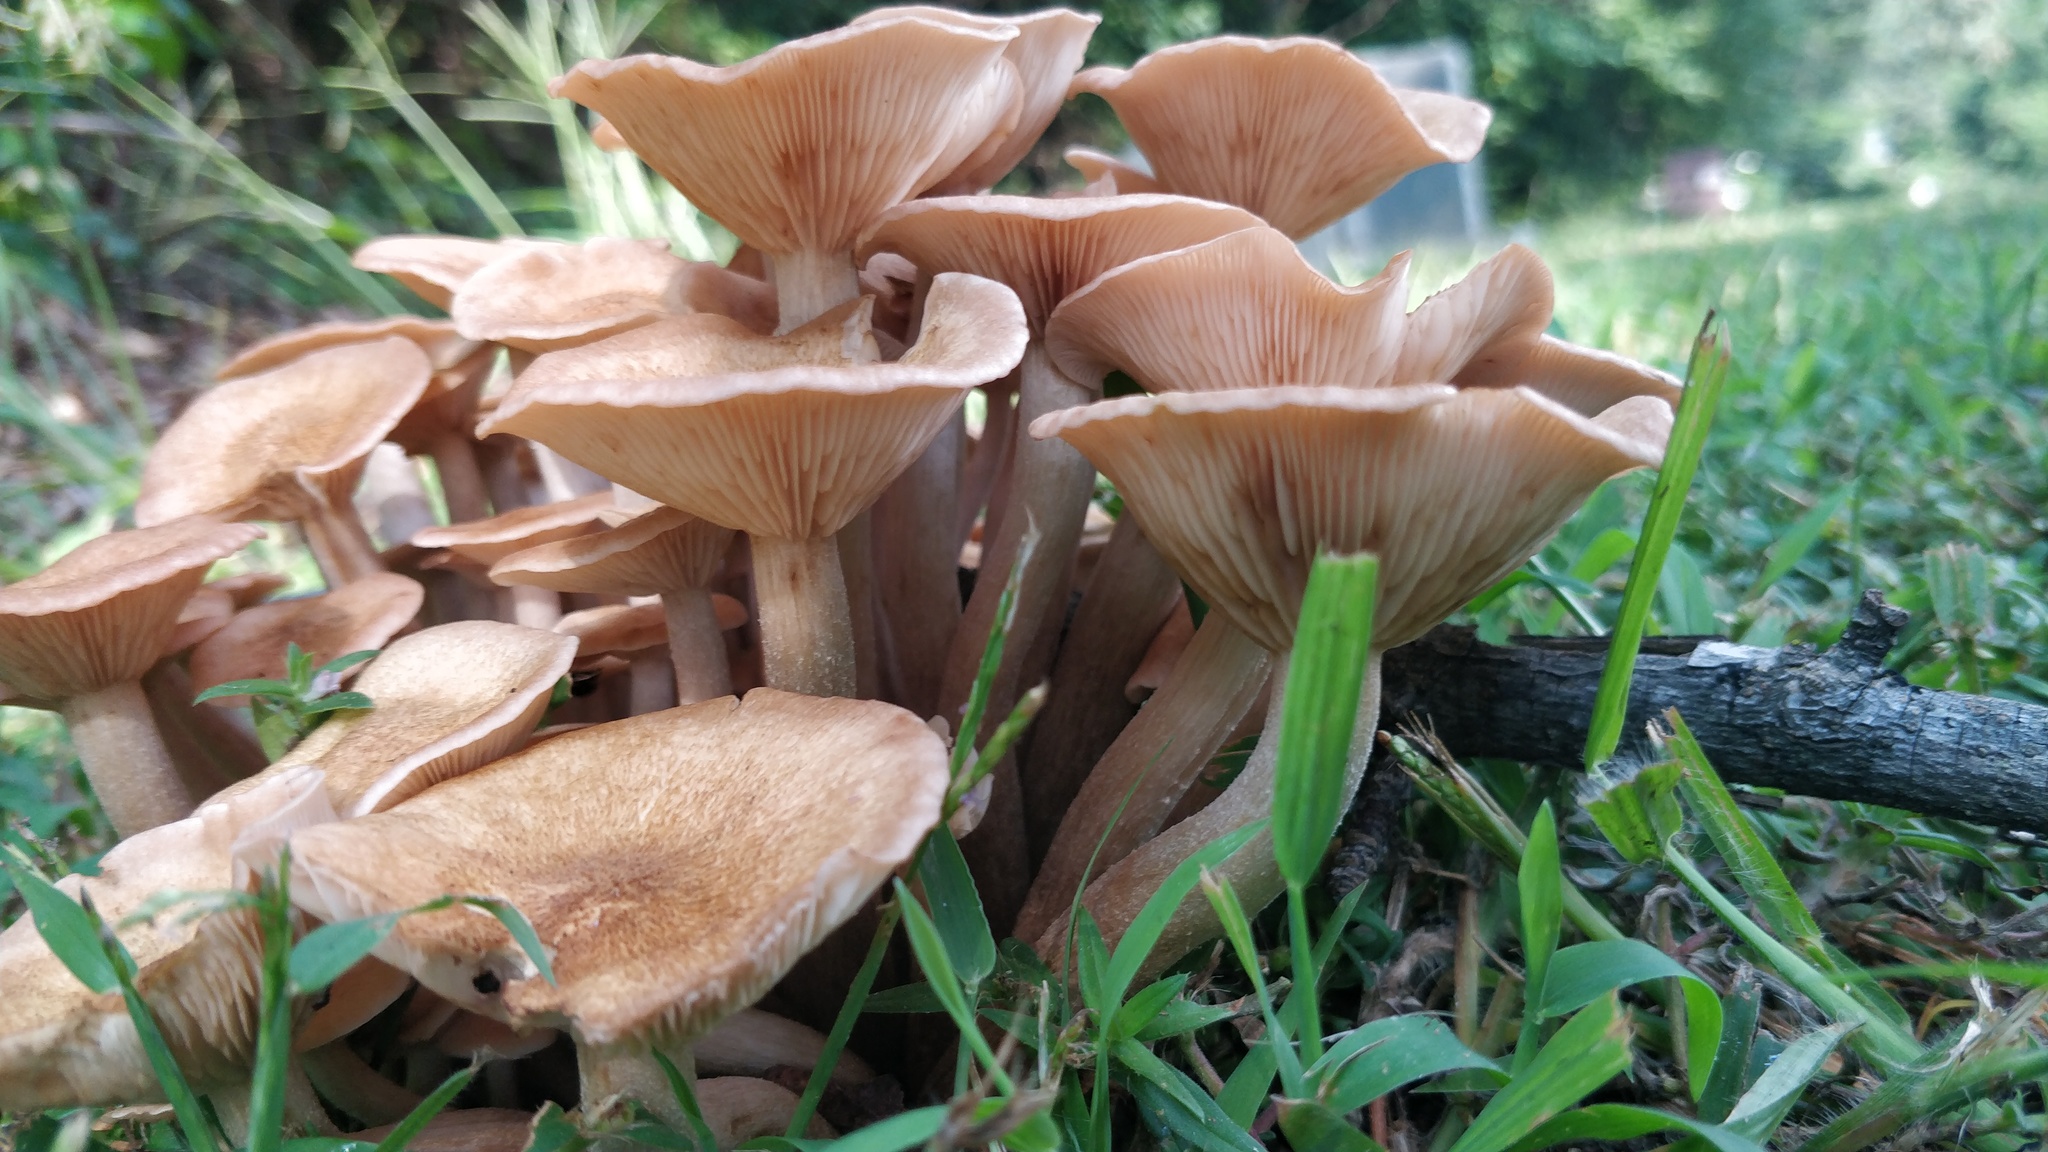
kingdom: Fungi
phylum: Basidiomycota
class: Agaricomycetes
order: Agaricales
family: Physalacriaceae
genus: Desarmillaria
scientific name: Desarmillaria caespitosa
